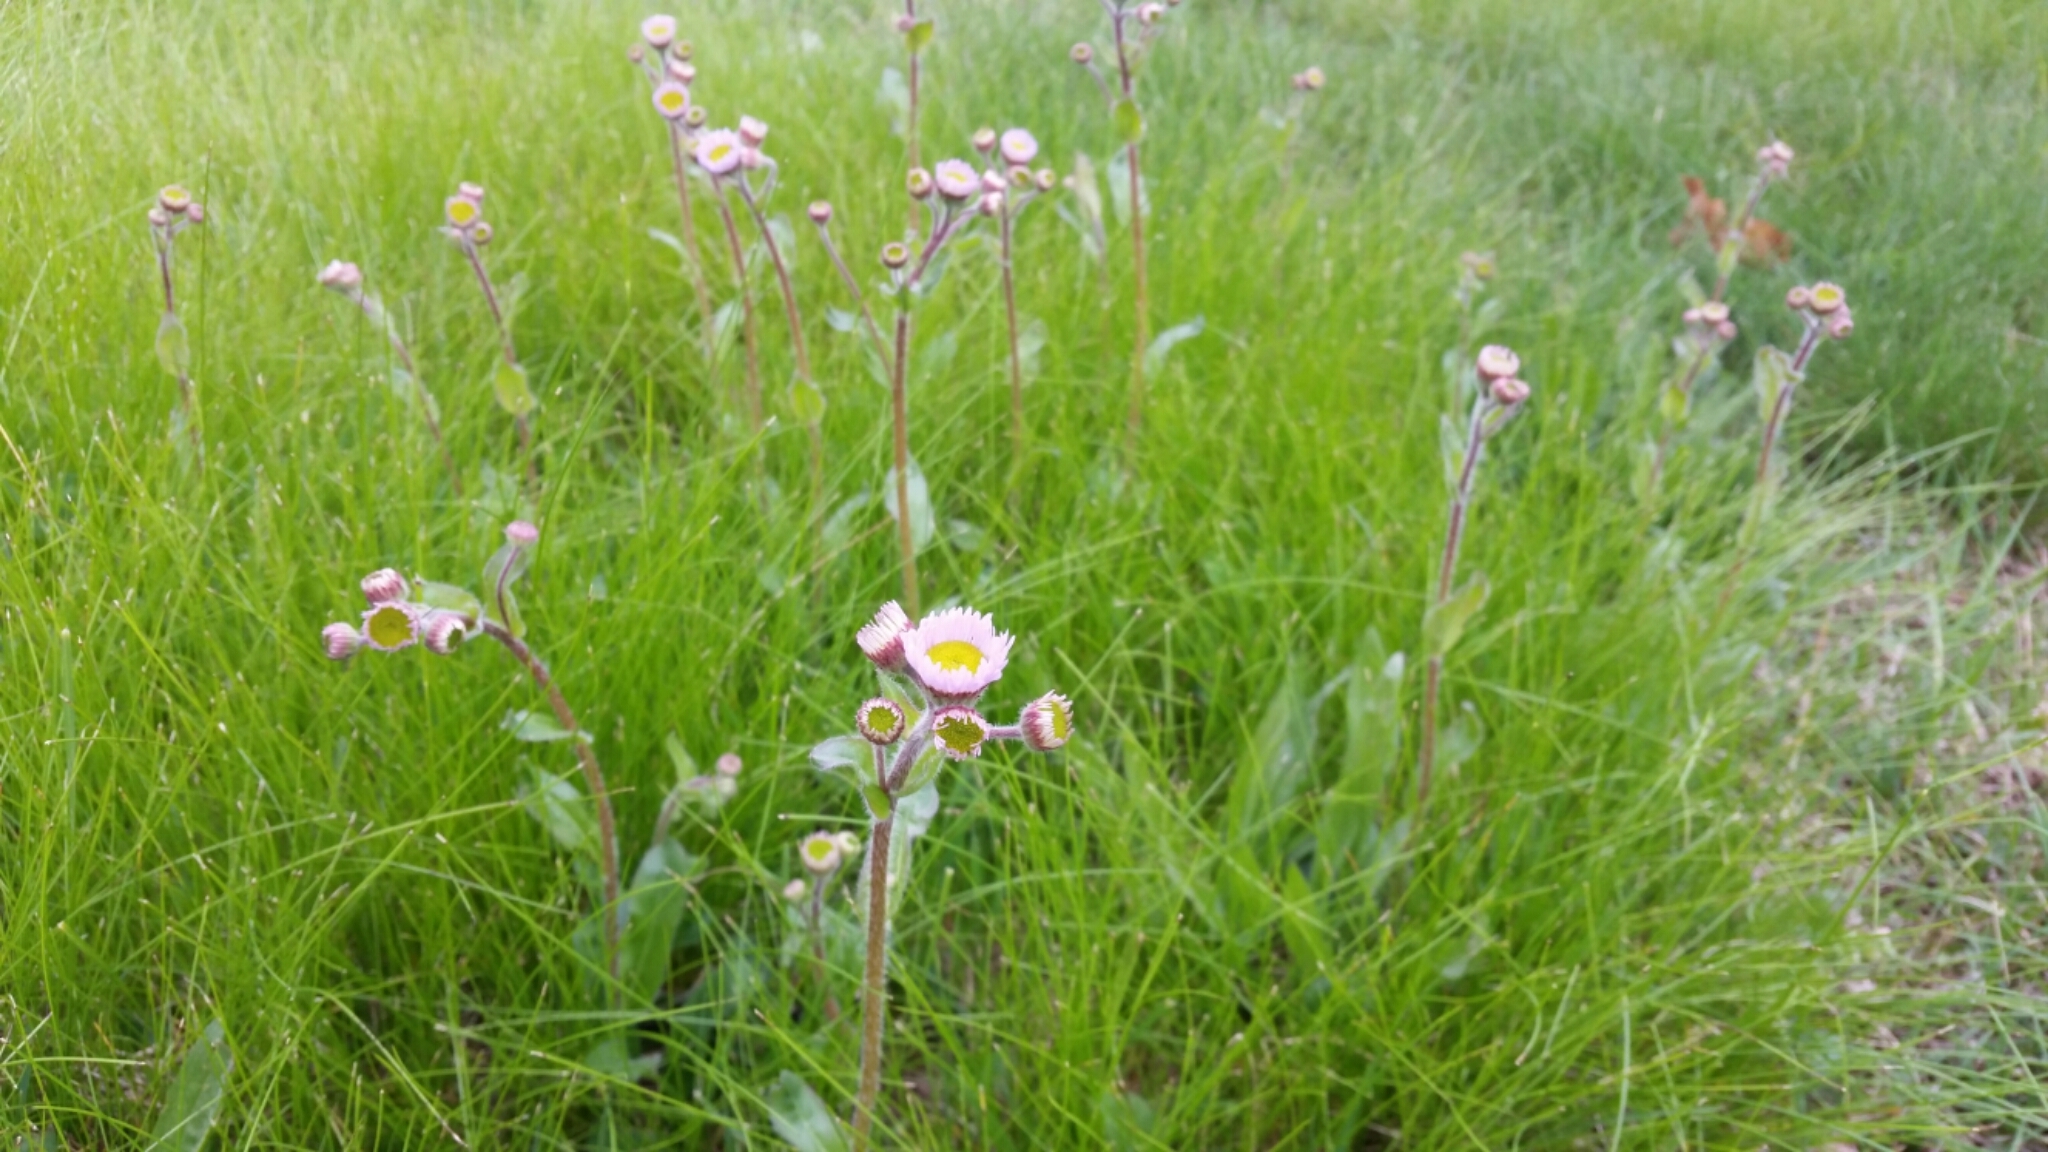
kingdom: Plantae
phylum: Tracheophyta
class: Magnoliopsida
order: Asterales
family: Asteraceae
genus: Erigeron
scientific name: Erigeron pulchellus
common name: Hairy fleabane
